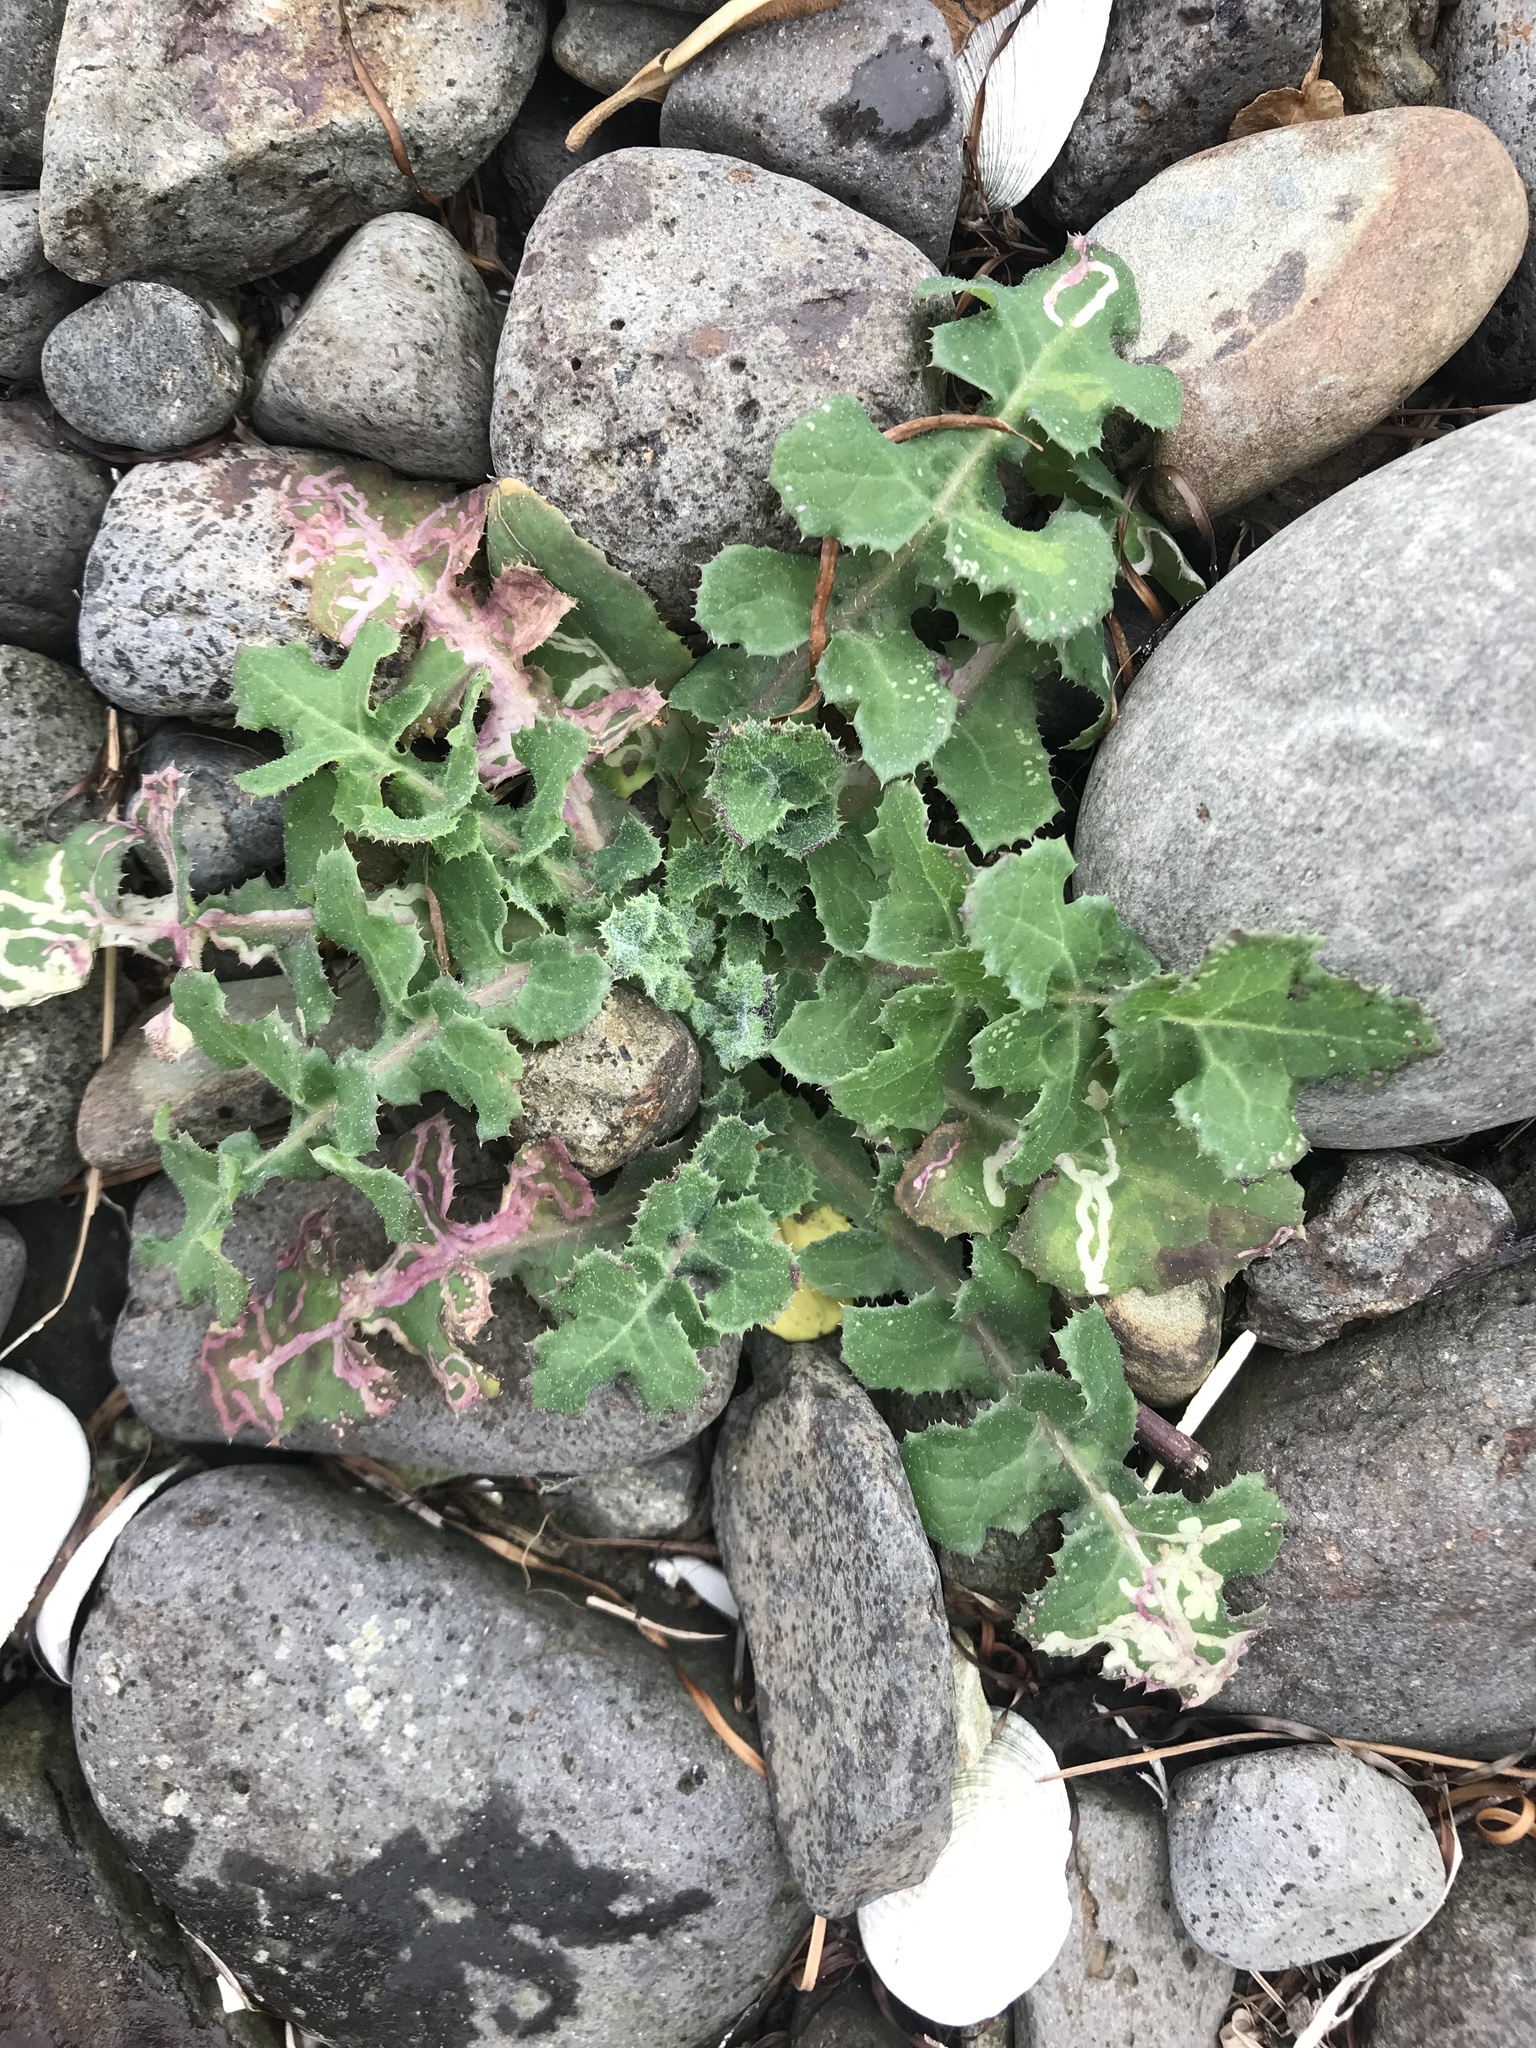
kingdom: Plantae
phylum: Tracheophyta
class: Magnoliopsida
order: Asterales
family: Asteraceae
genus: Sonchus
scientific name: Sonchus oleraceus
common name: Common sowthistle
